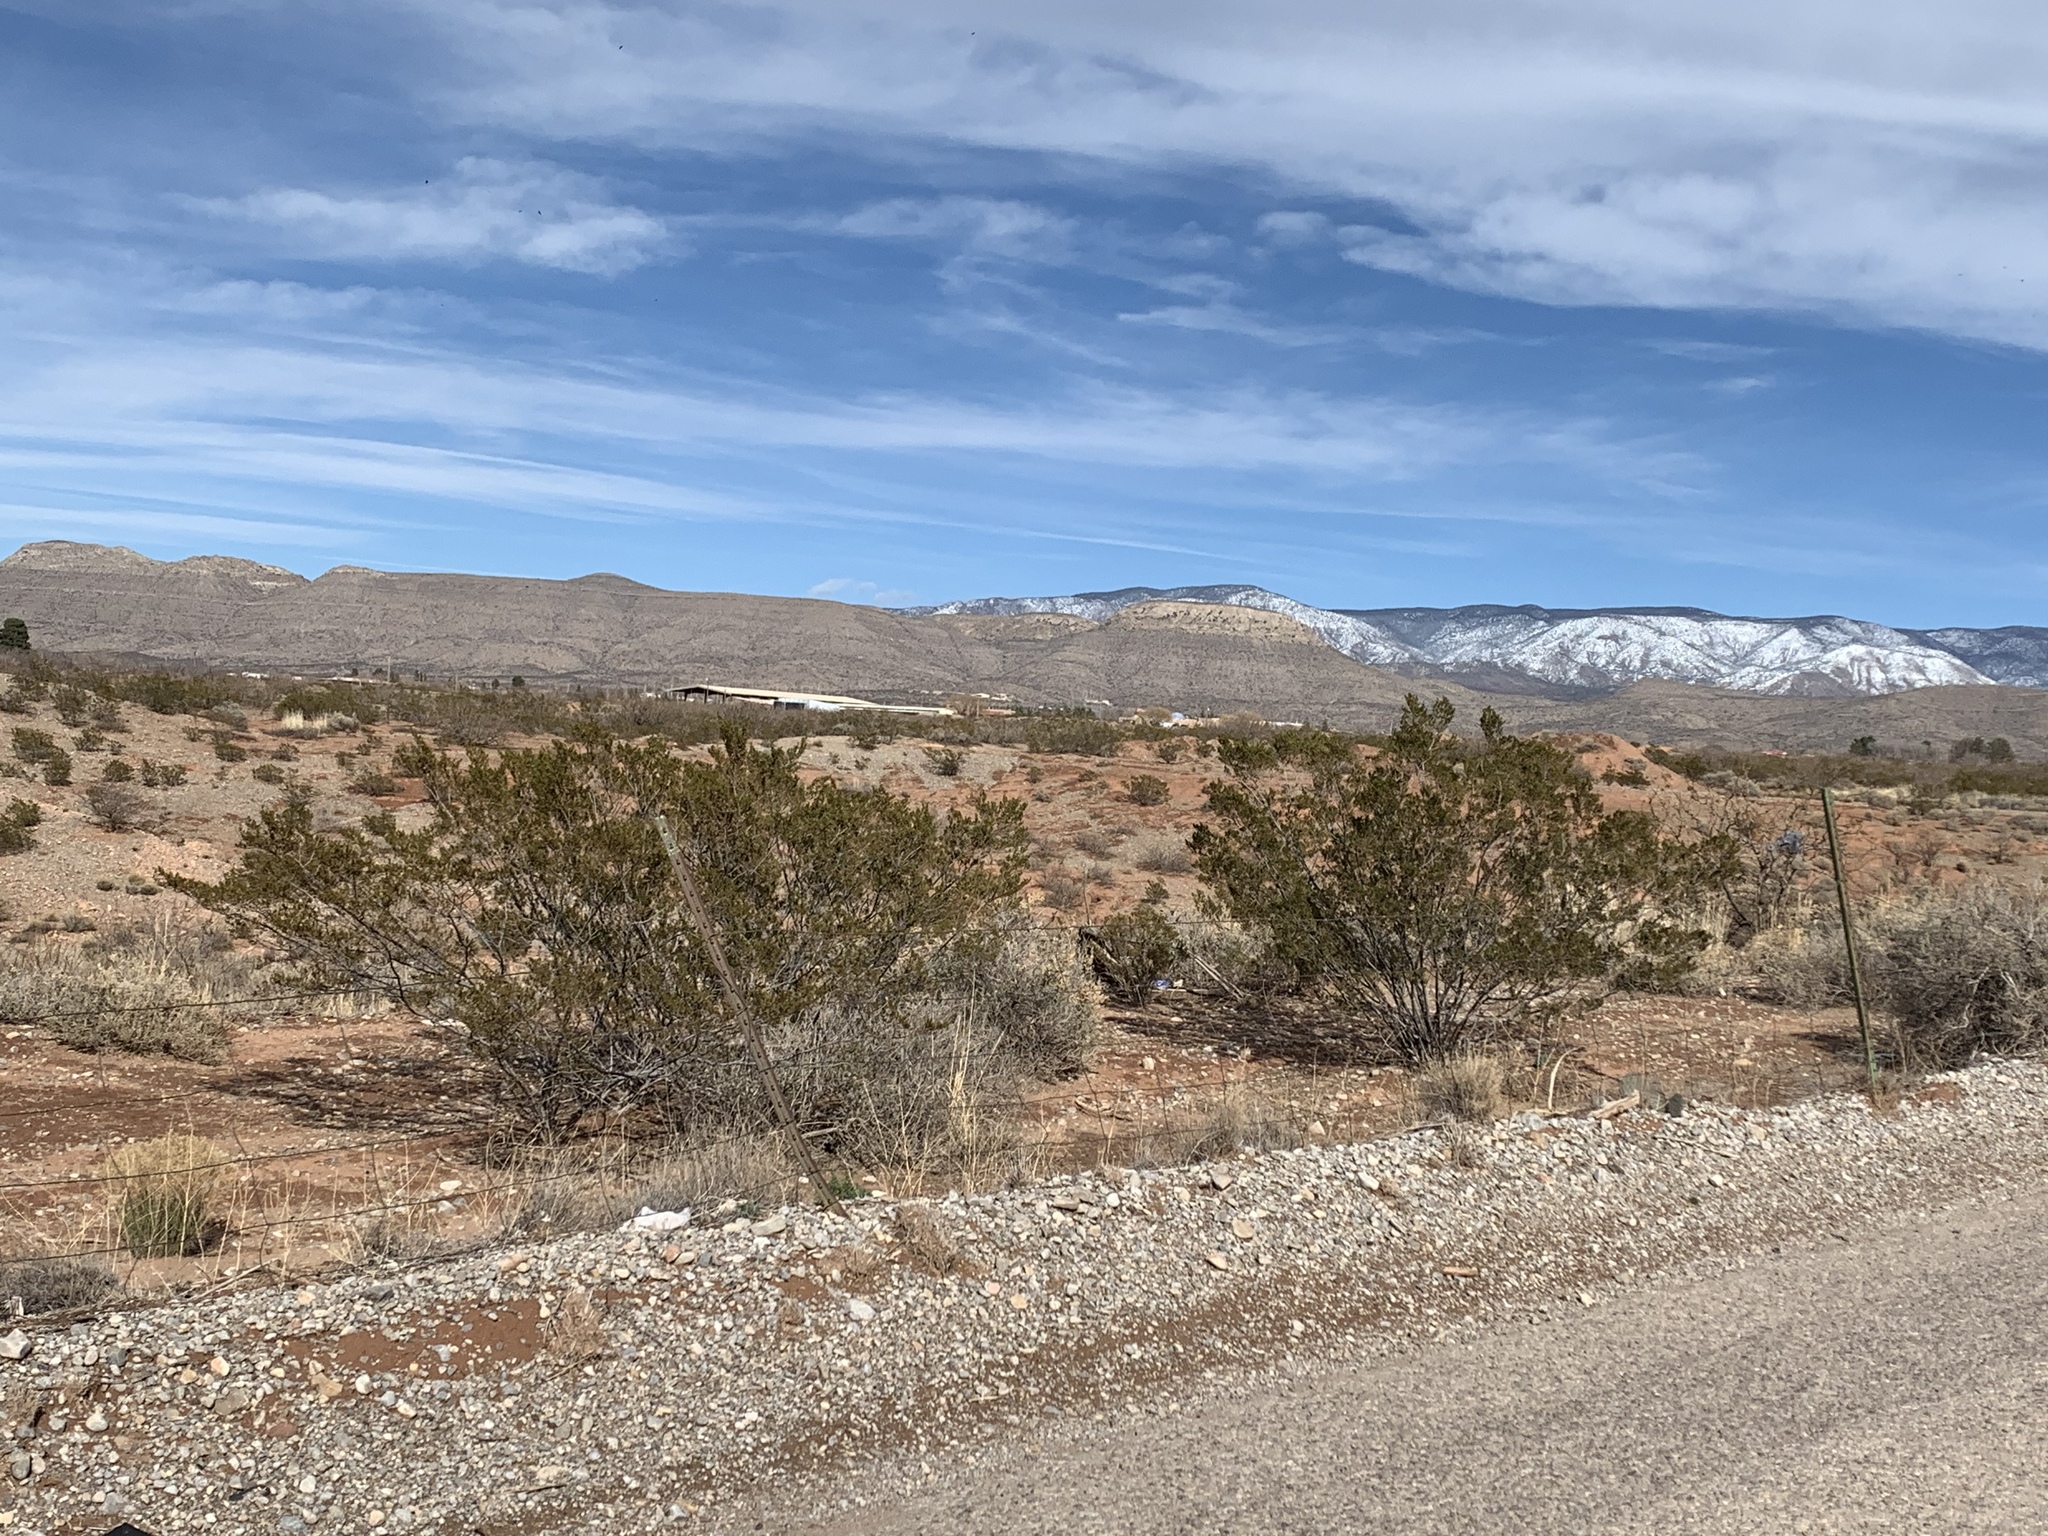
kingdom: Plantae
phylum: Tracheophyta
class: Magnoliopsida
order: Zygophyllales
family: Zygophyllaceae
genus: Larrea
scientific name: Larrea tridentata
